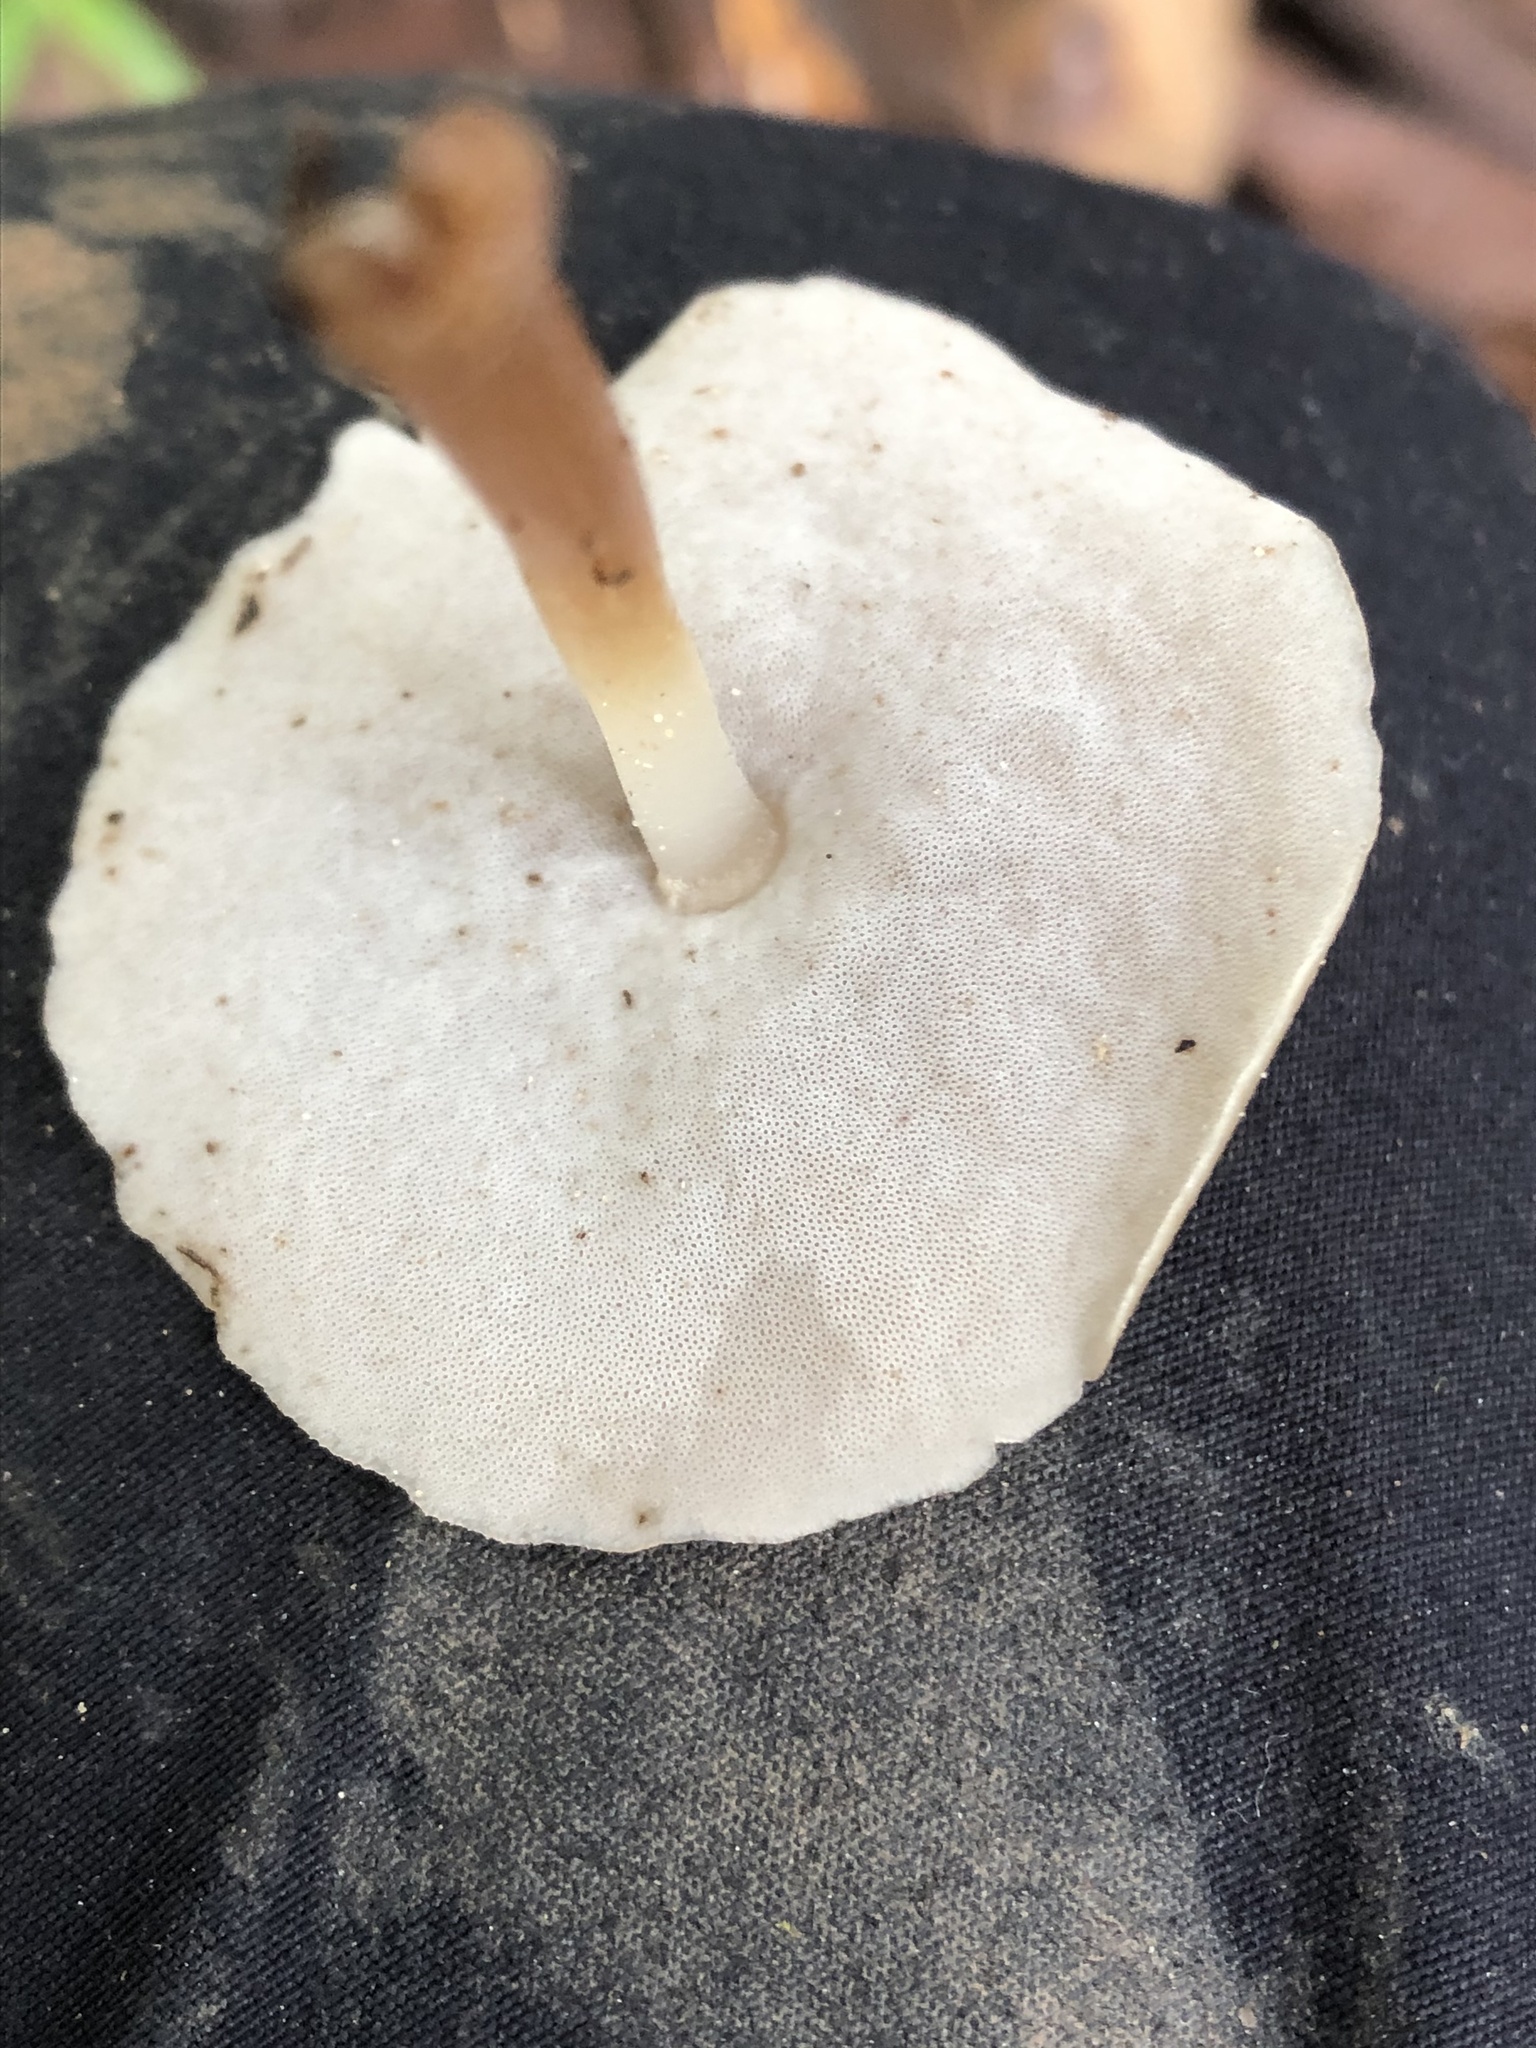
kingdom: Fungi
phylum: Basidiomycota
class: Agaricomycetes
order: Agaricales
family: Mycenaceae
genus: Filoboletus
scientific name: Filoboletus gracilis
